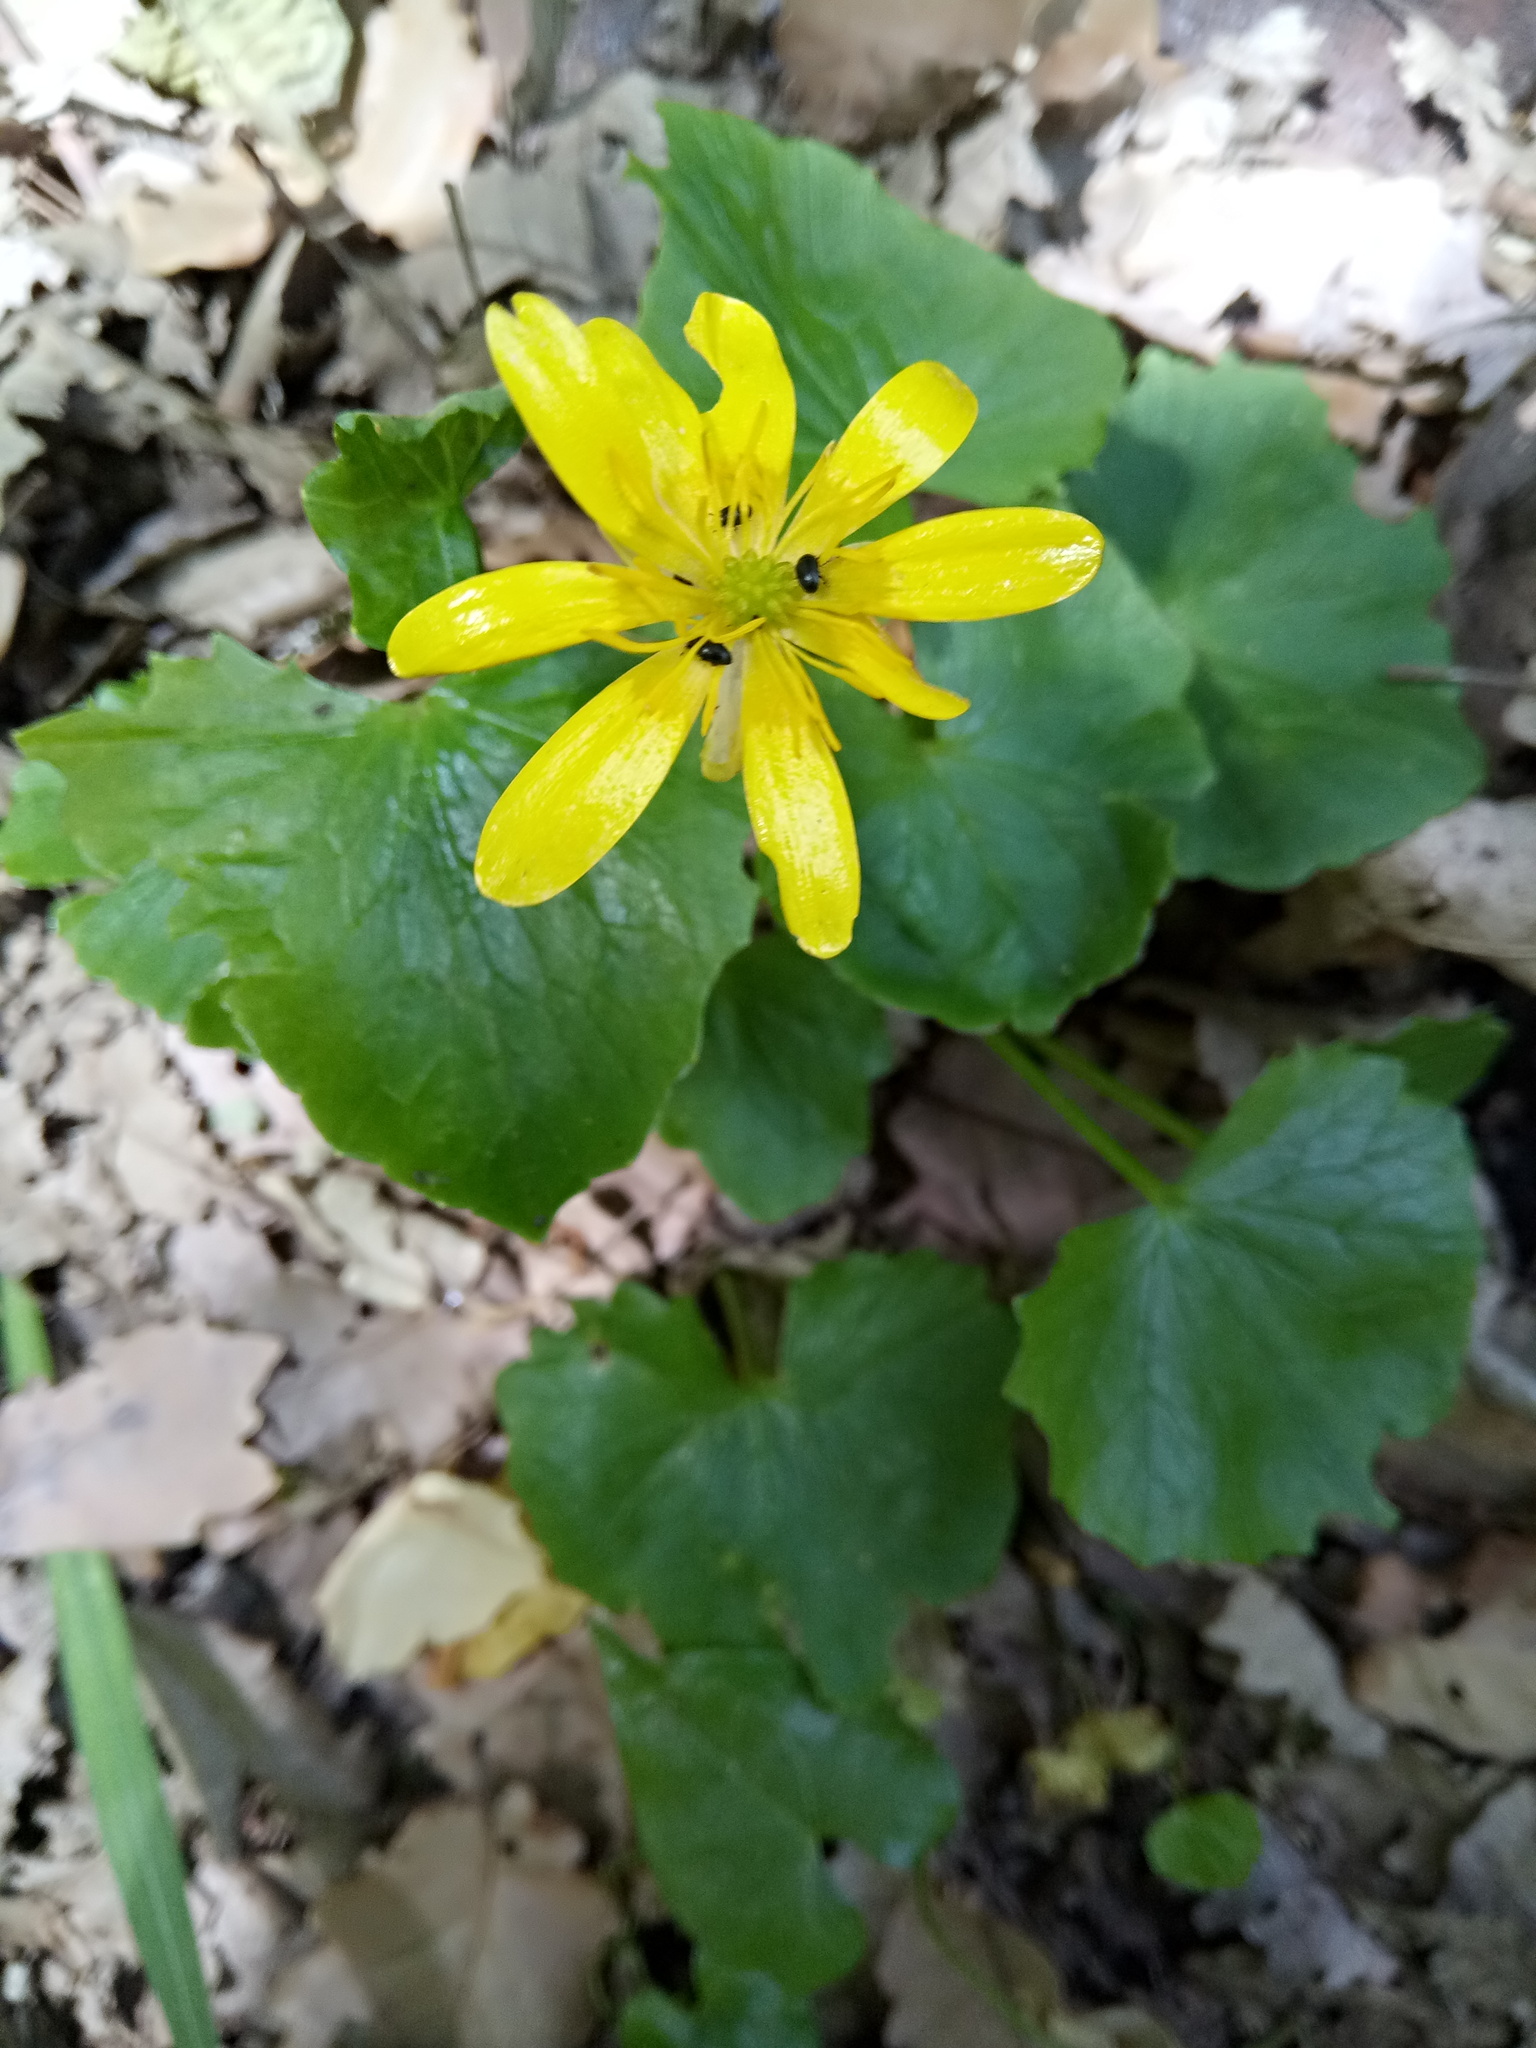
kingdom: Plantae
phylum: Tracheophyta
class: Magnoliopsida
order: Ranunculales
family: Ranunculaceae
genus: Ficaria
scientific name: Ficaria verna
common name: Lesser celandine
